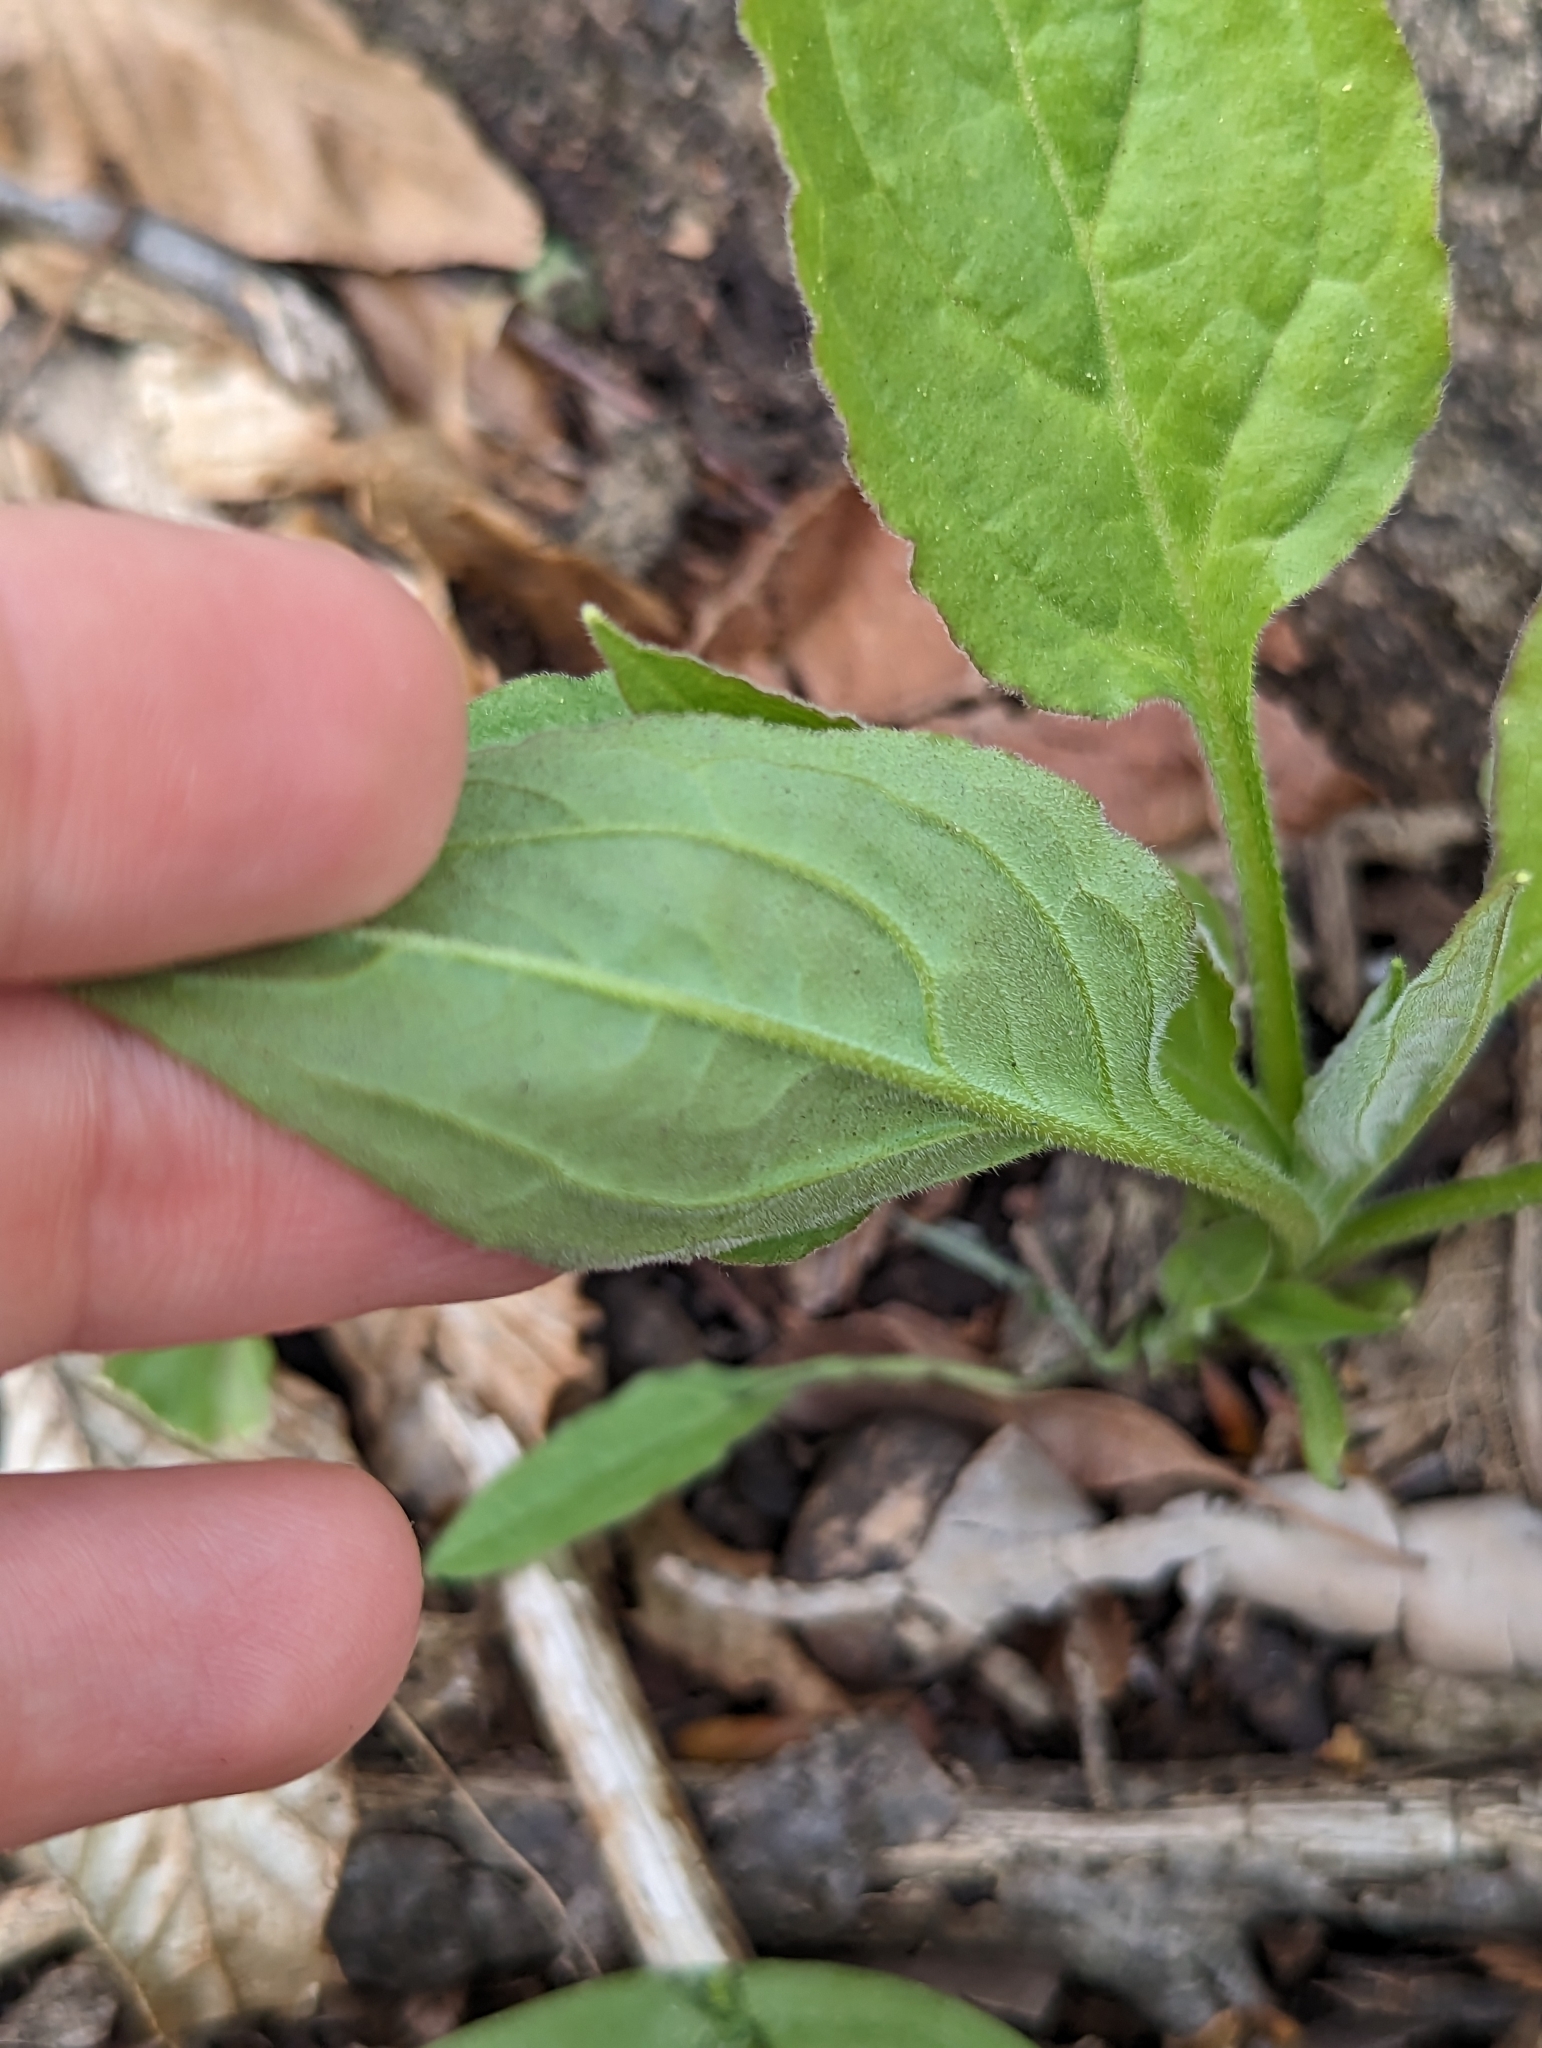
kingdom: Plantae
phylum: Tracheophyta
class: Magnoliopsida
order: Boraginales
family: Boraginaceae
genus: Hackelia
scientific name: Hackelia virginiana
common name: Beggar's-lice
